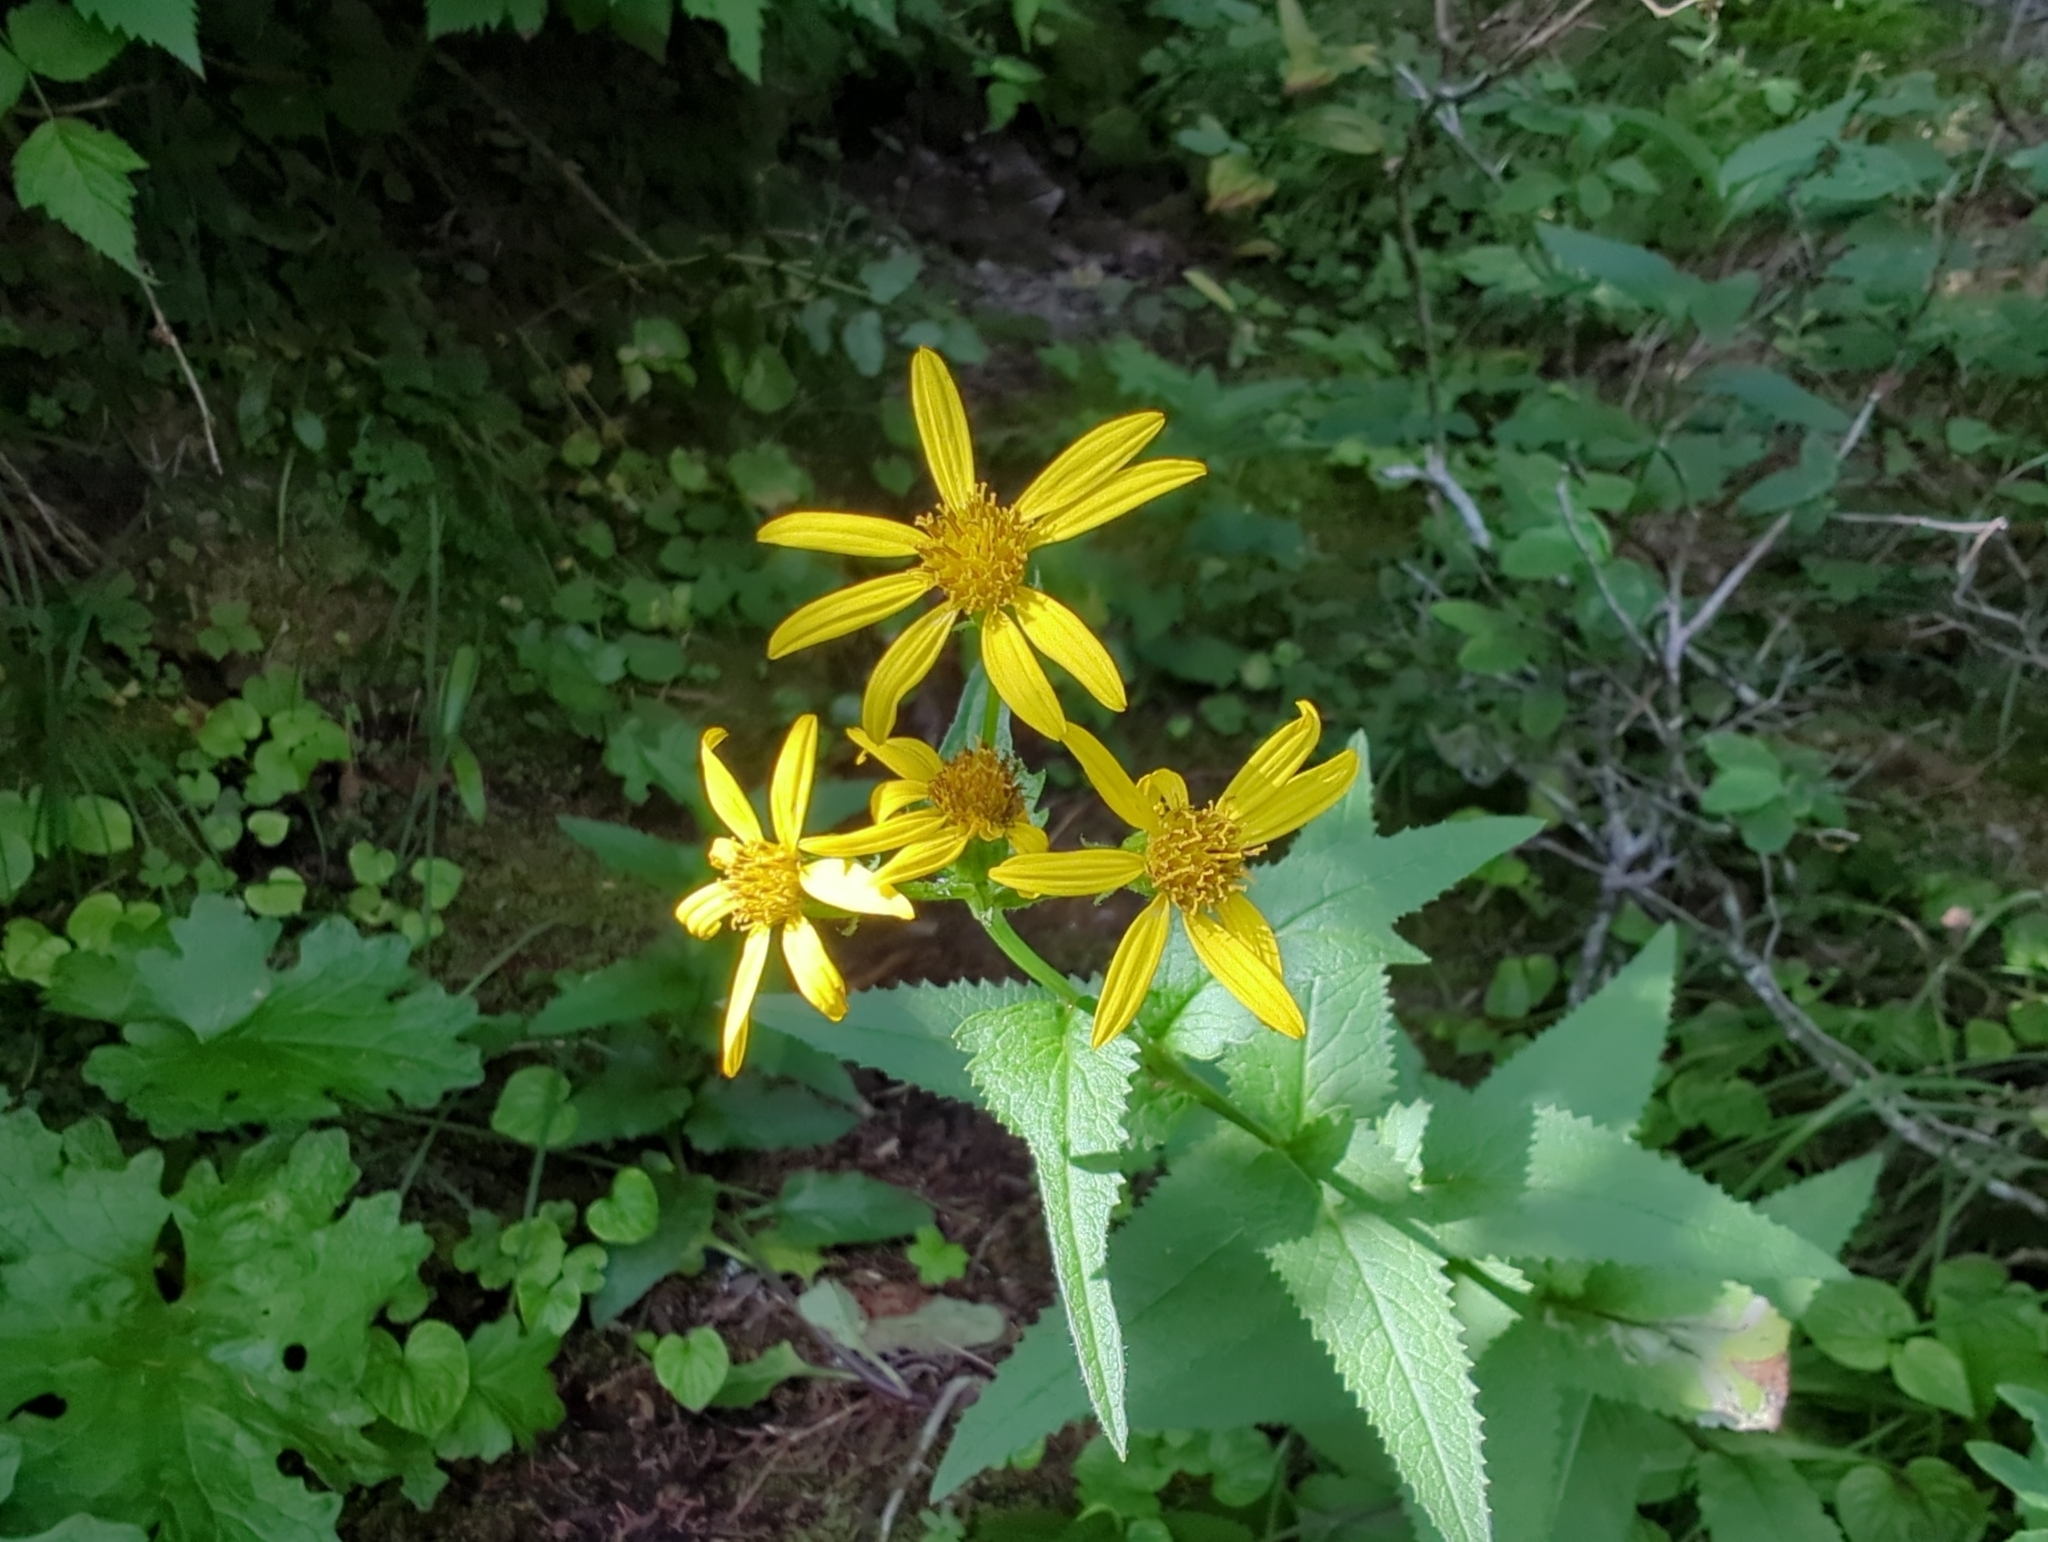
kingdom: Plantae
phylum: Tracheophyta
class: Magnoliopsida
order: Asterales
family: Asteraceae
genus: Senecio
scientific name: Senecio triangularis
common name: Arrowleaf butterweed
